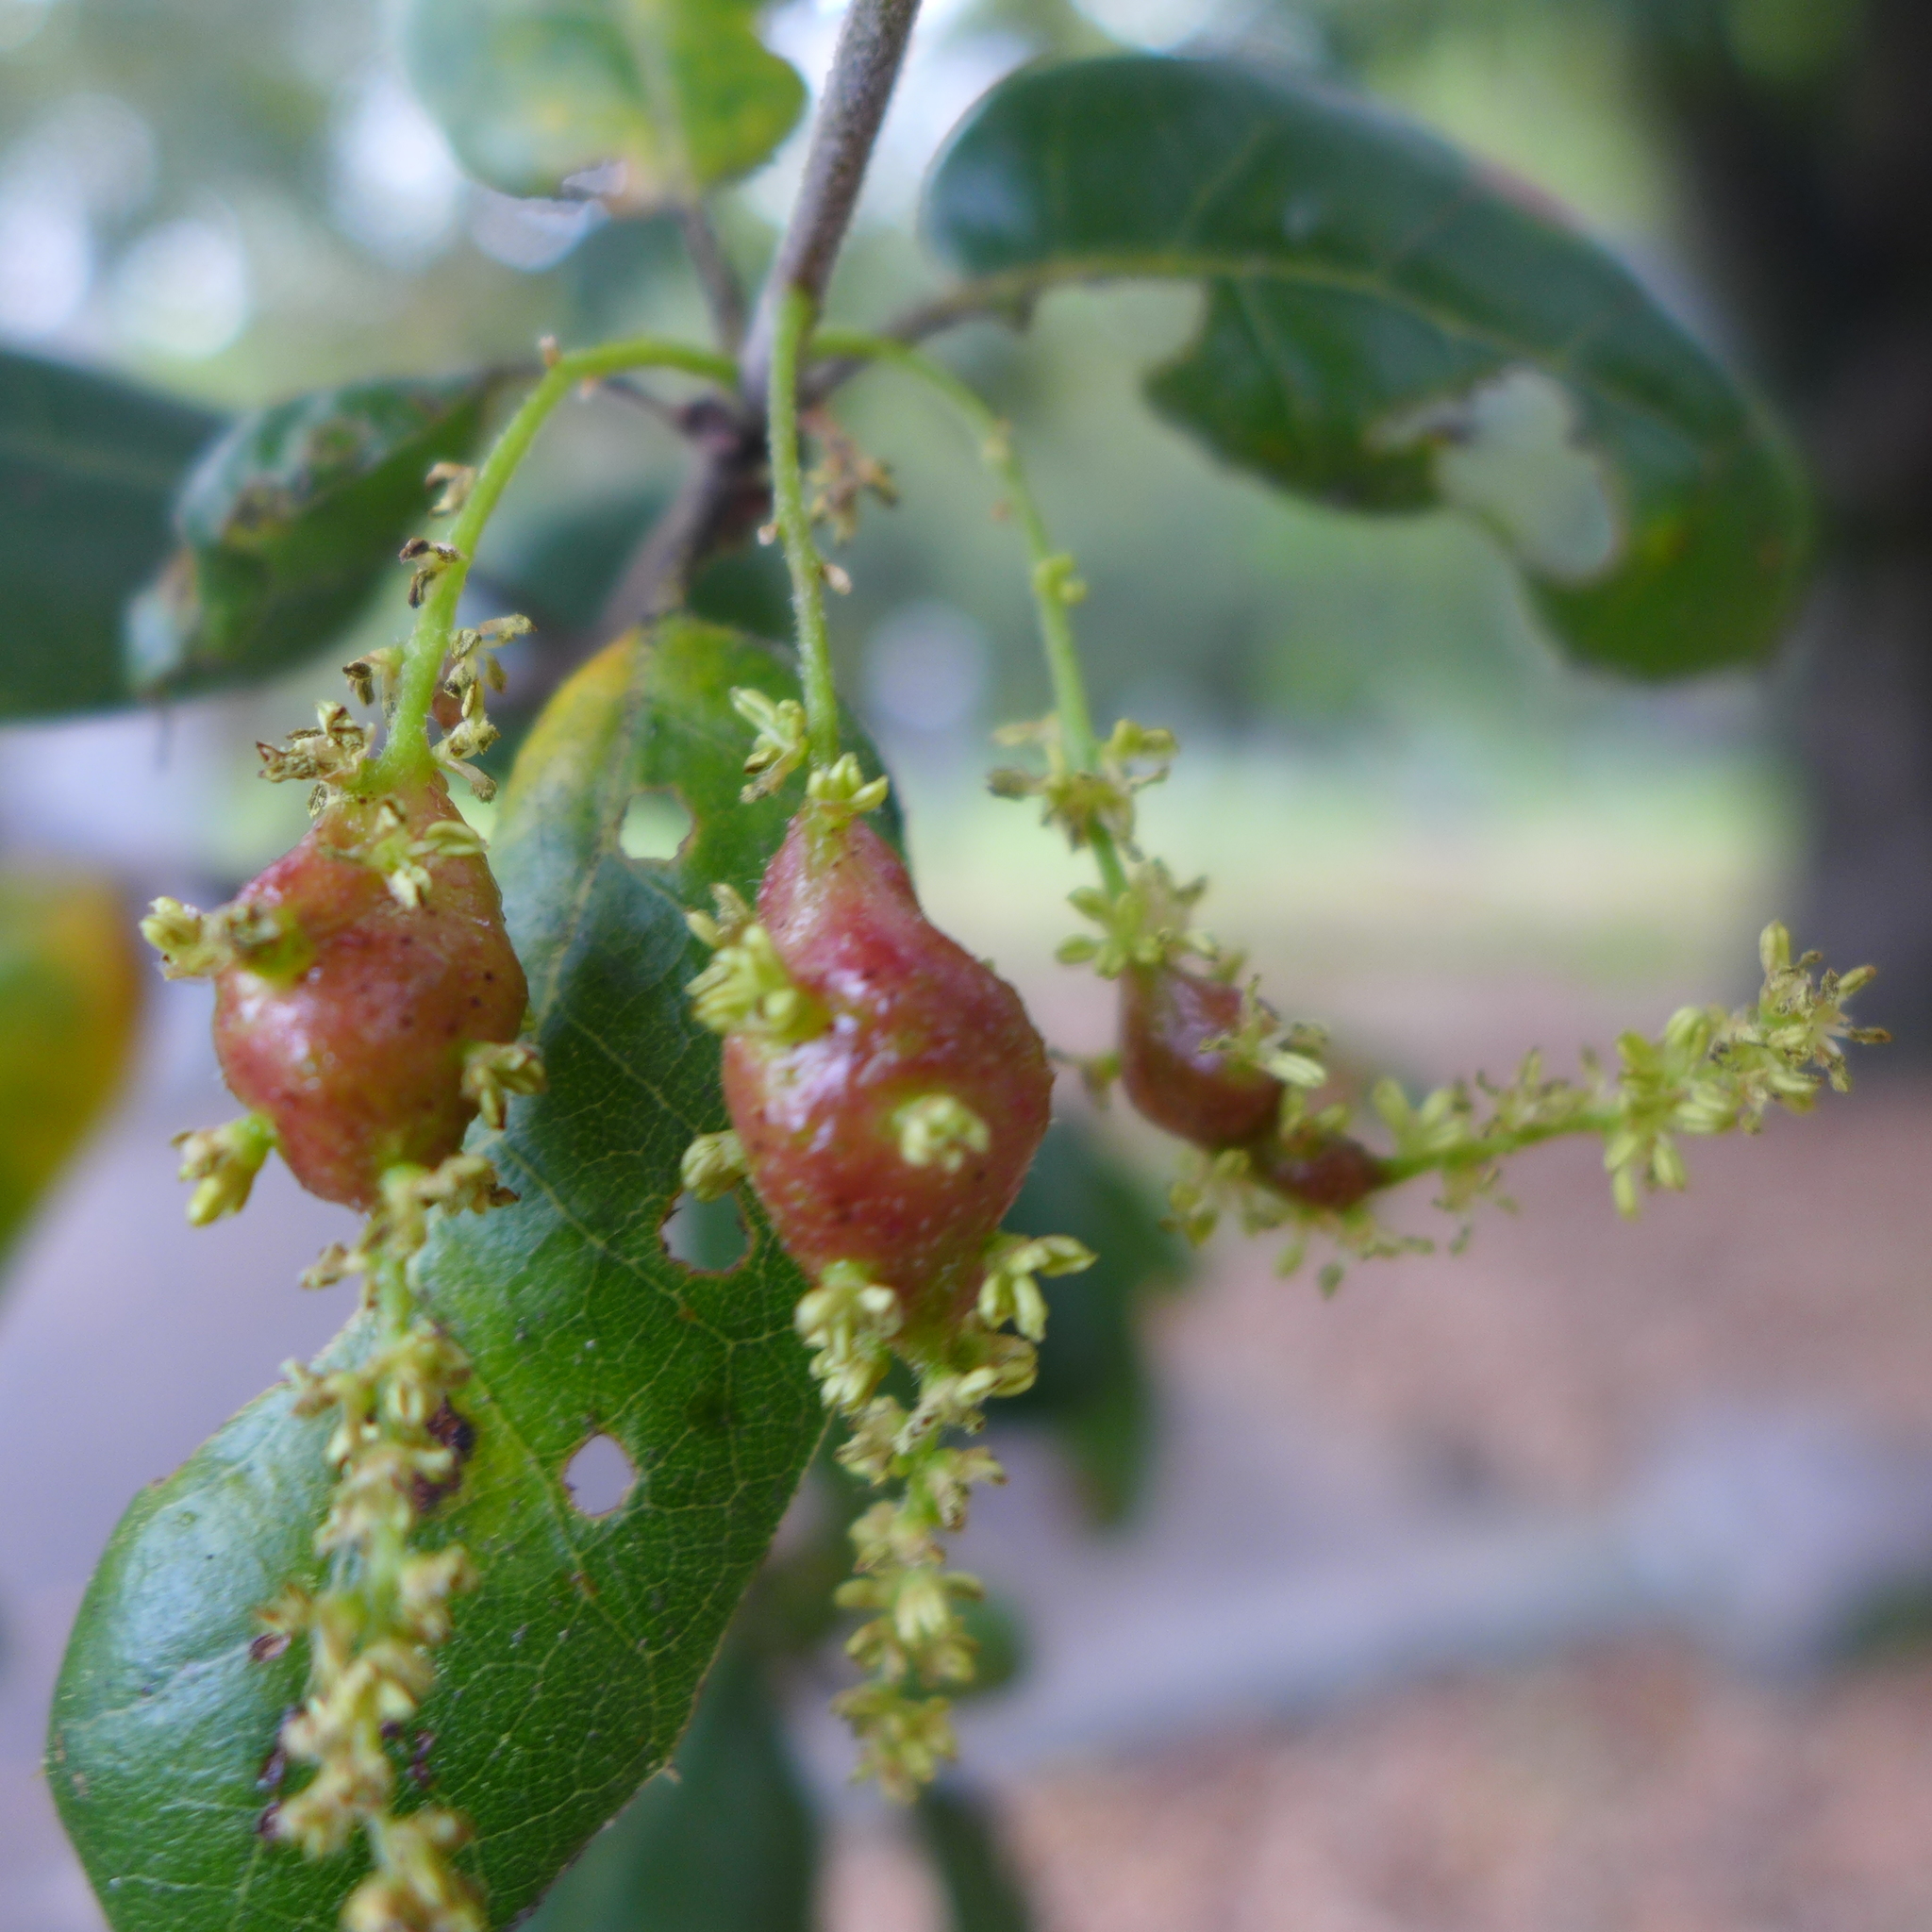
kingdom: Animalia
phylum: Arthropoda
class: Insecta
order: Hymenoptera
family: Cynipidae
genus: Callirhytis
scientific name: Callirhytis
